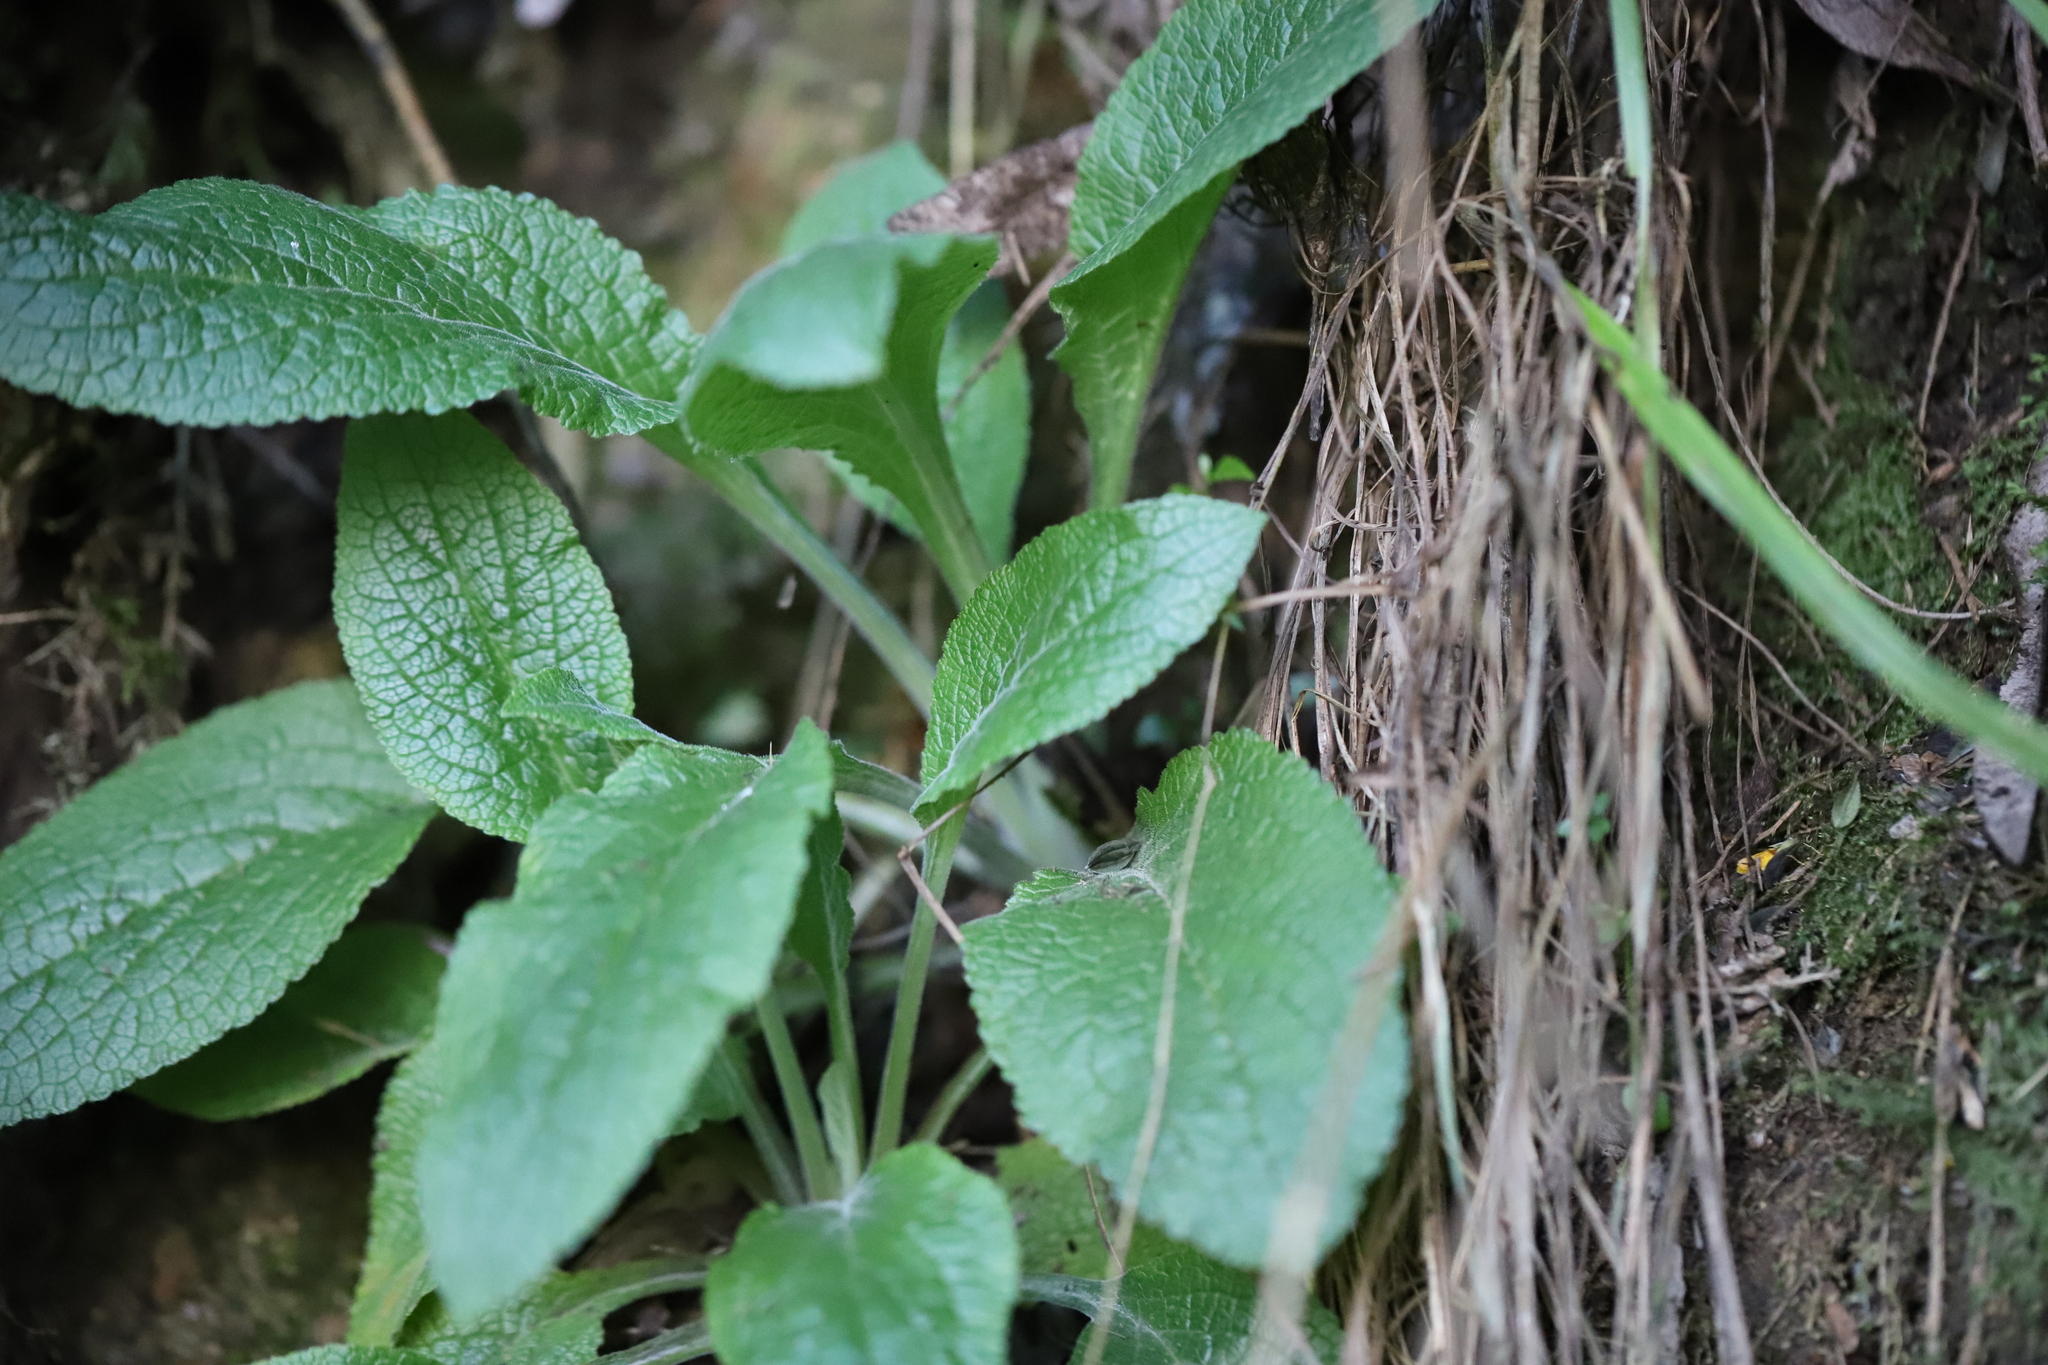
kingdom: Plantae
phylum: Tracheophyta
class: Magnoliopsida
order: Lamiales
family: Plantaginaceae
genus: Digitalis
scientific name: Digitalis purpurea
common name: Foxglove
